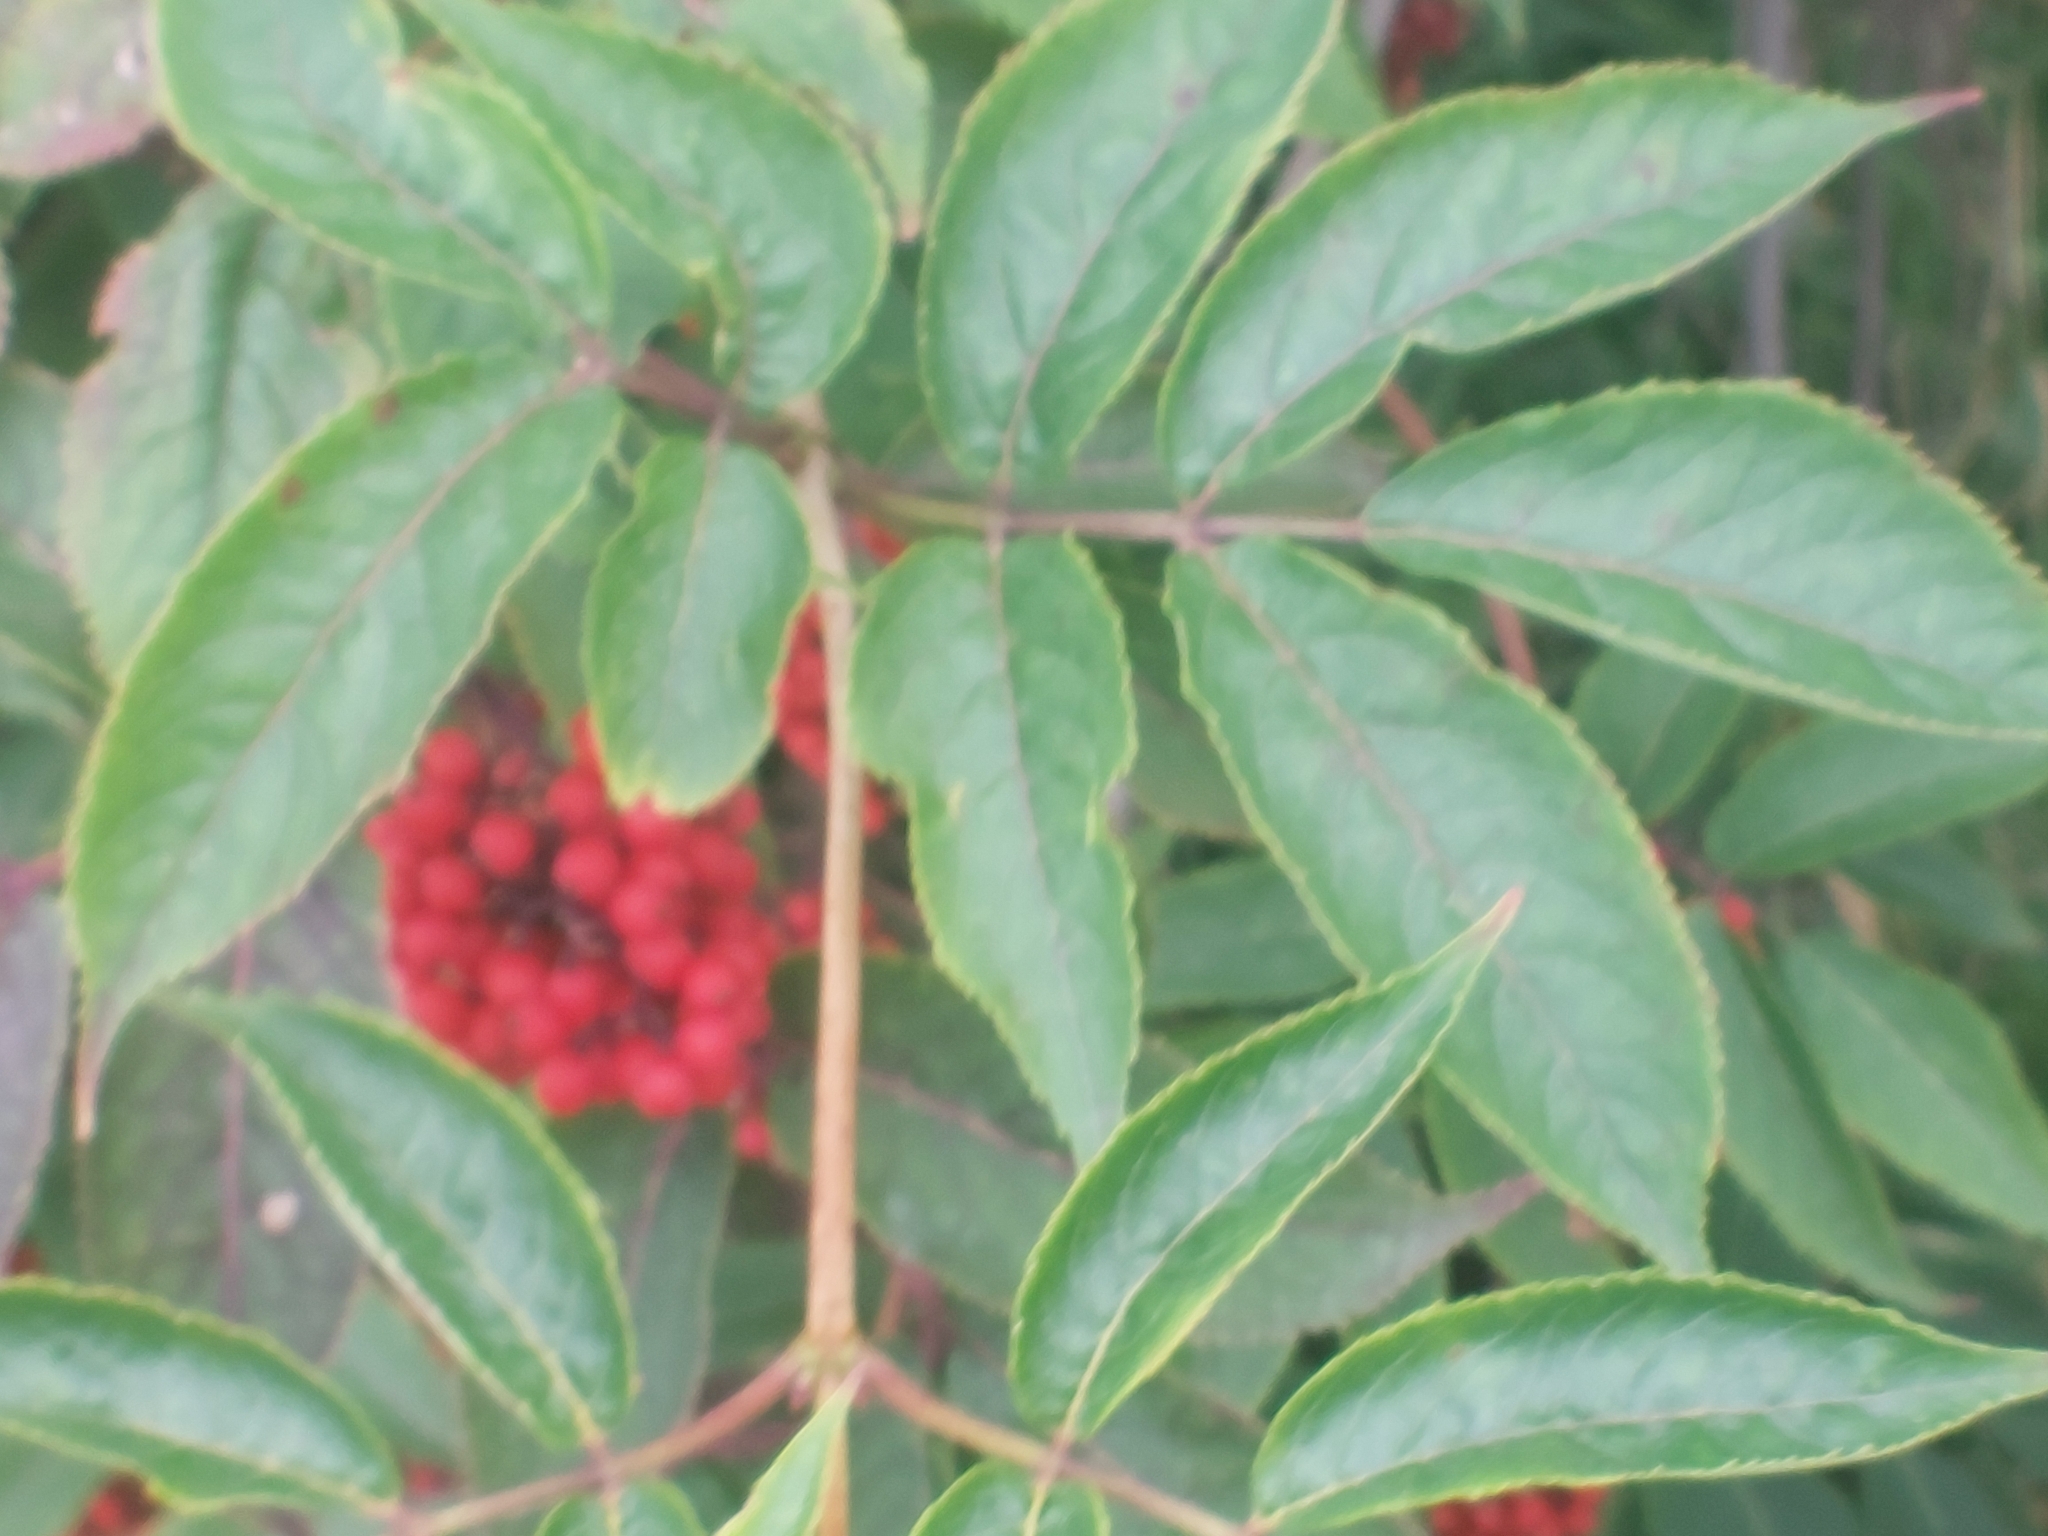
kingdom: Plantae
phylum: Tracheophyta
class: Magnoliopsida
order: Dipsacales
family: Viburnaceae
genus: Sambucus
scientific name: Sambucus racemosa
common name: Red-berried elder
